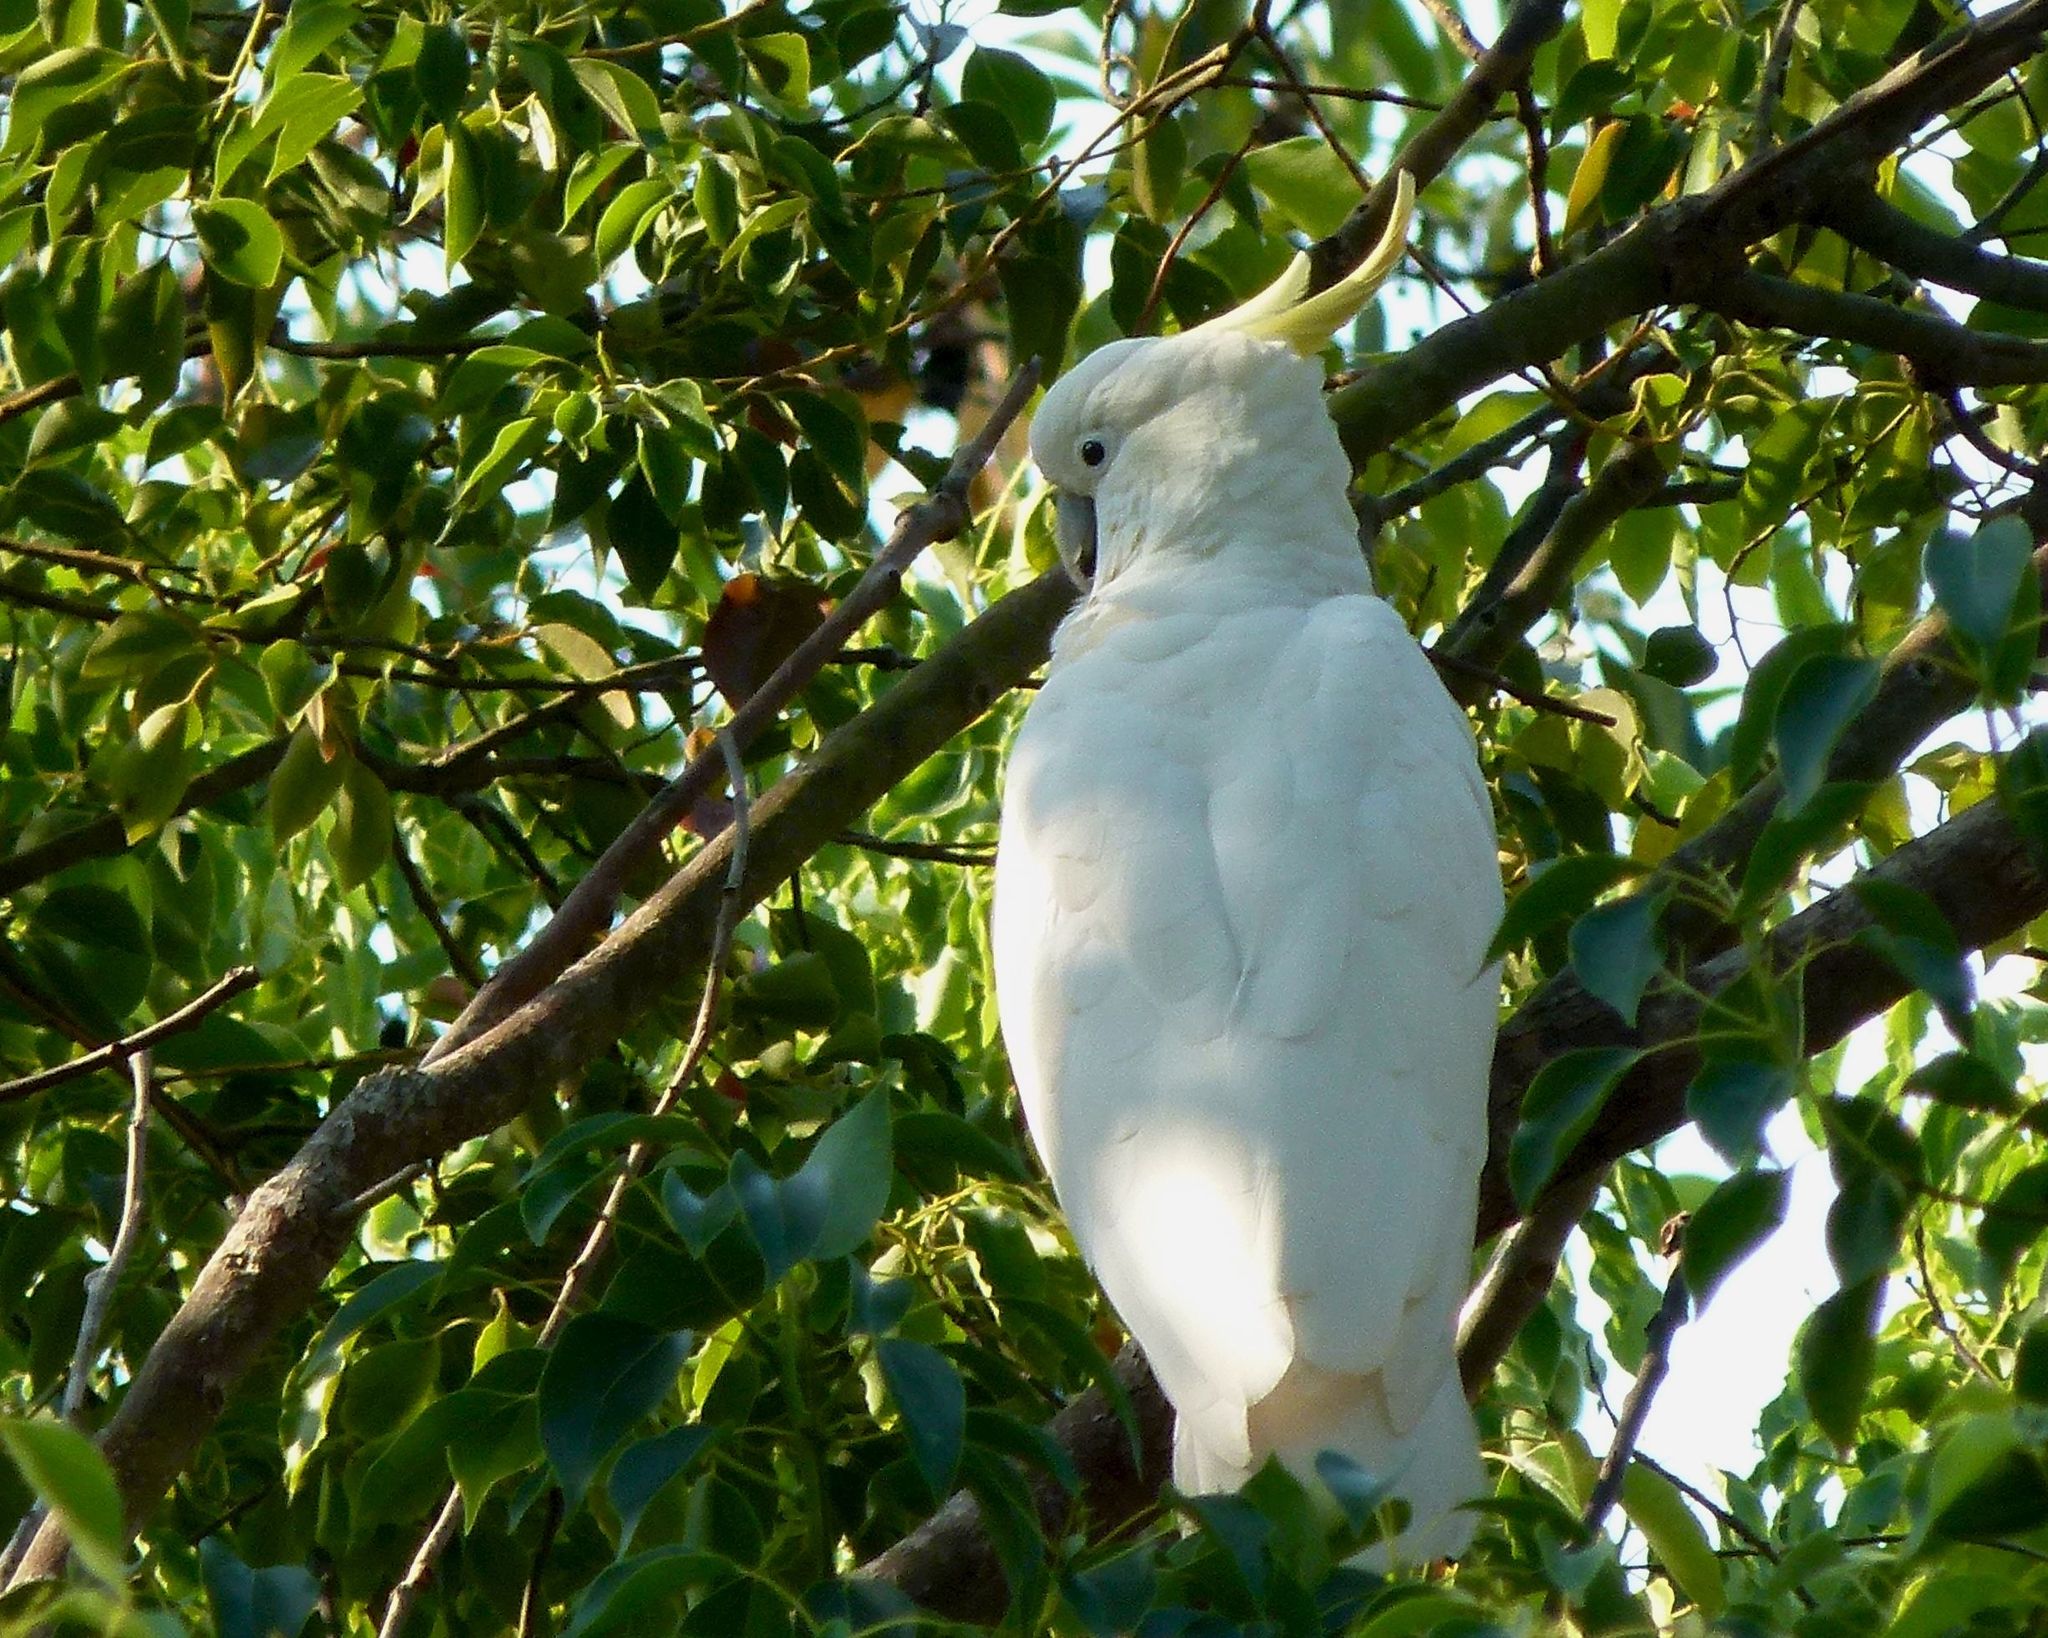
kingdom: Animalia
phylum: Chordata
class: Aves
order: Psittaciformes
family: Psittacidae
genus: Cacatua
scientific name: Cacatua galerita
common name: Sulphur-crested cockatoo
